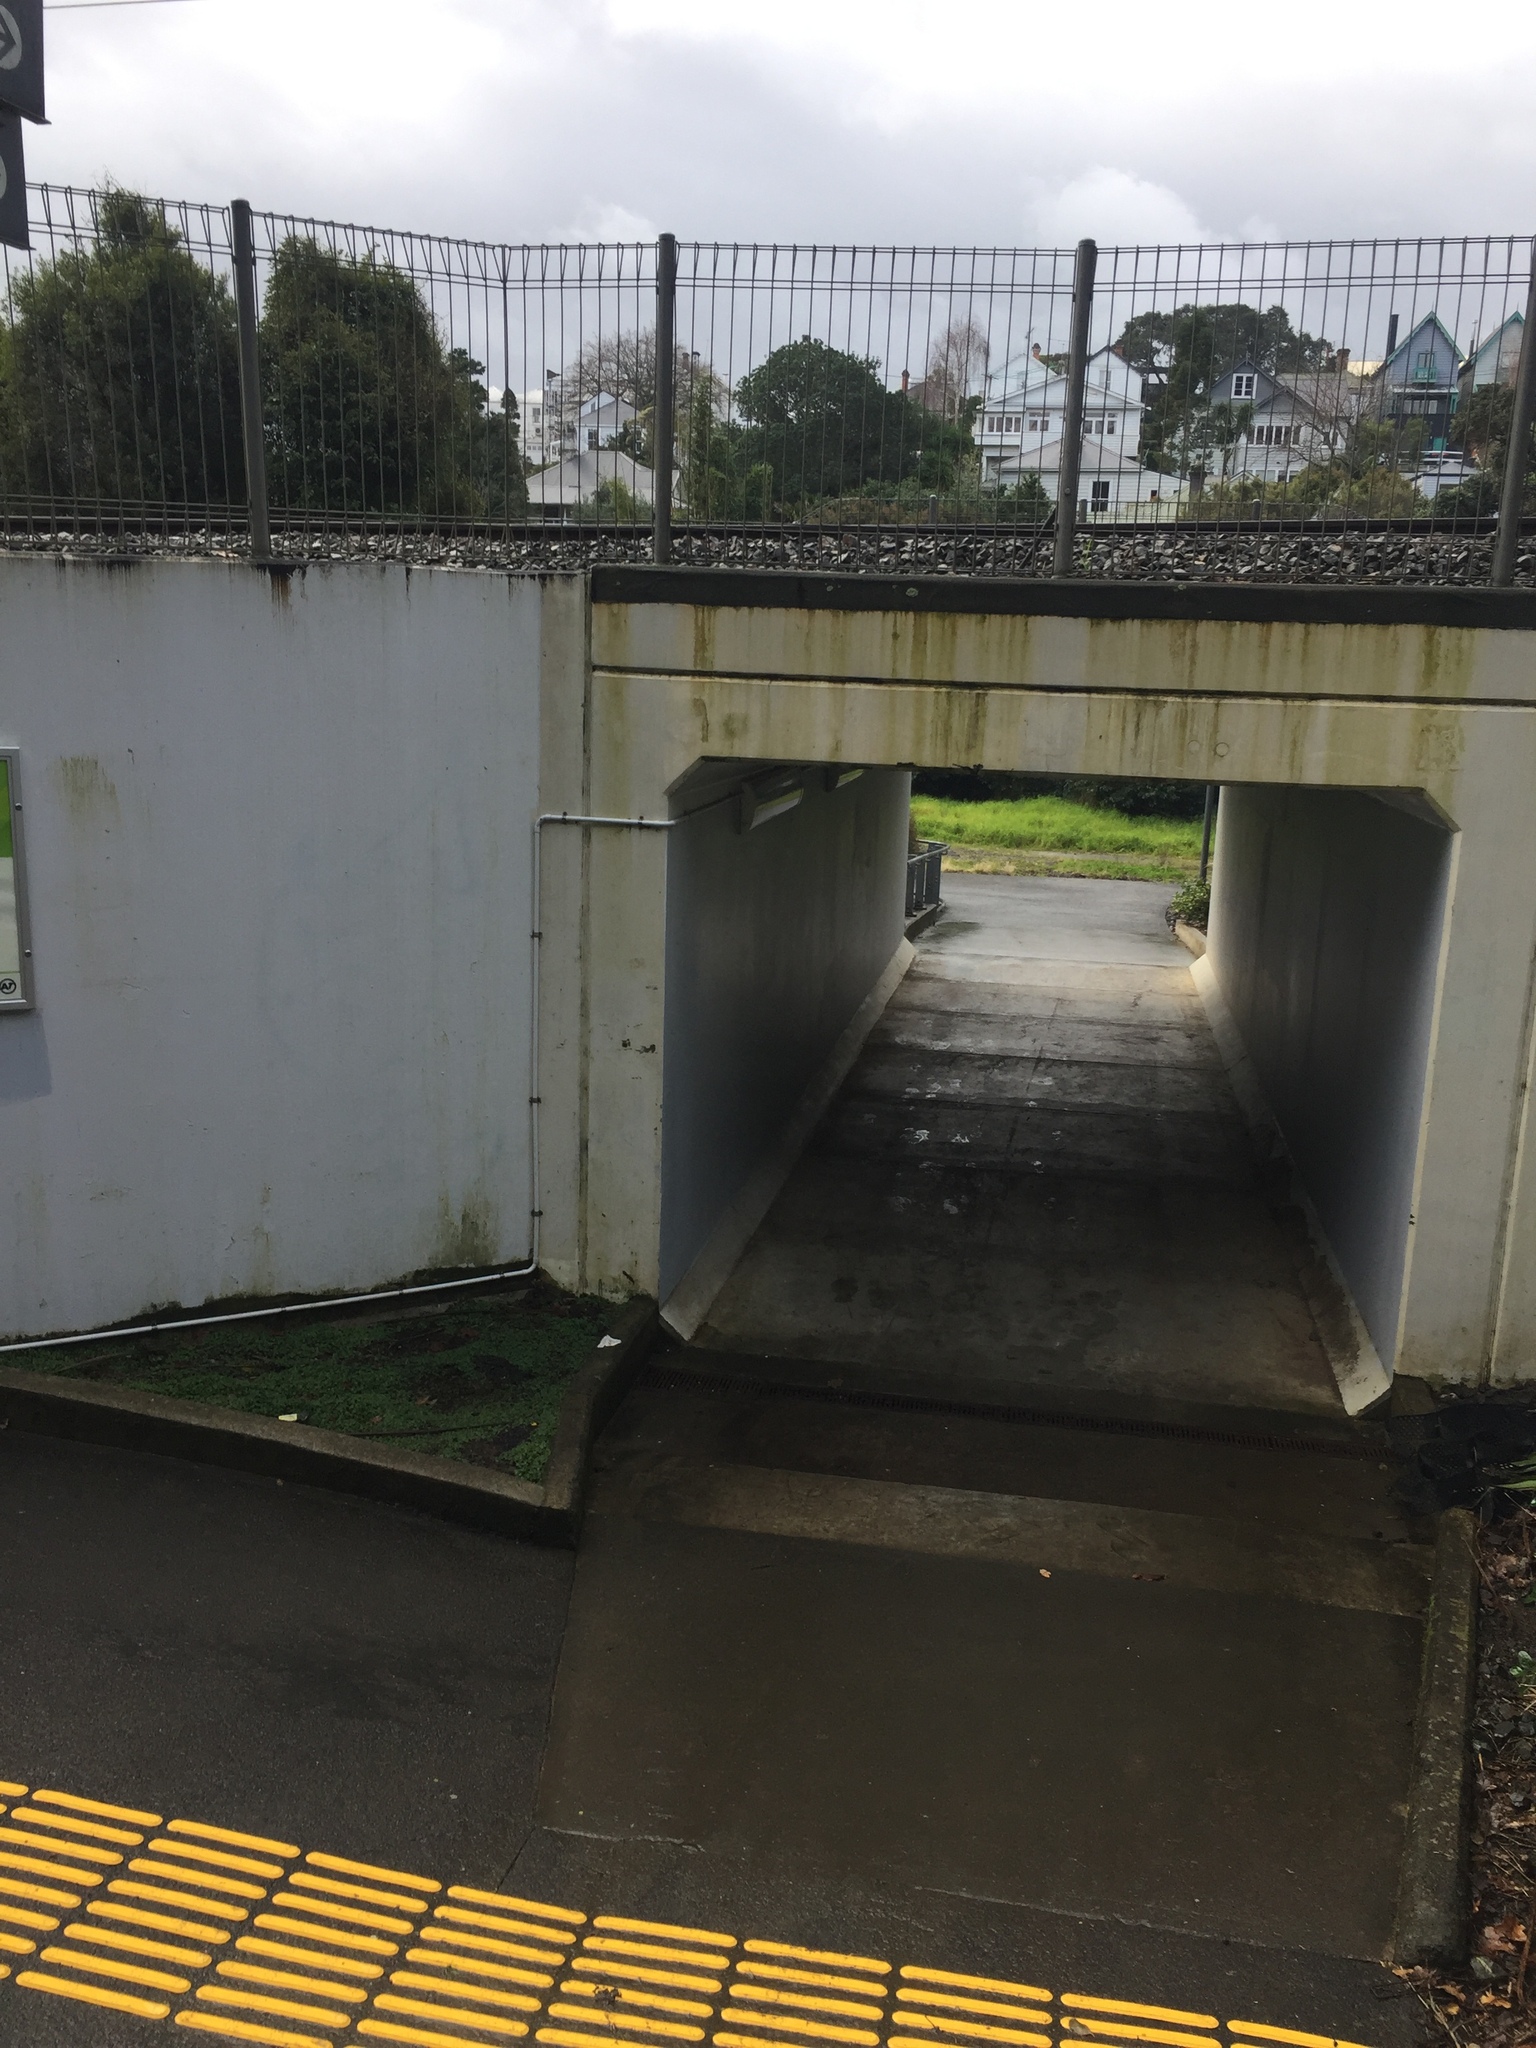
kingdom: Animalia
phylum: Arthropoda
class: Insecta
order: Lepidoptera
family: Psychidae
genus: Lepidoscia
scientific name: Lepidoscia heliochares
